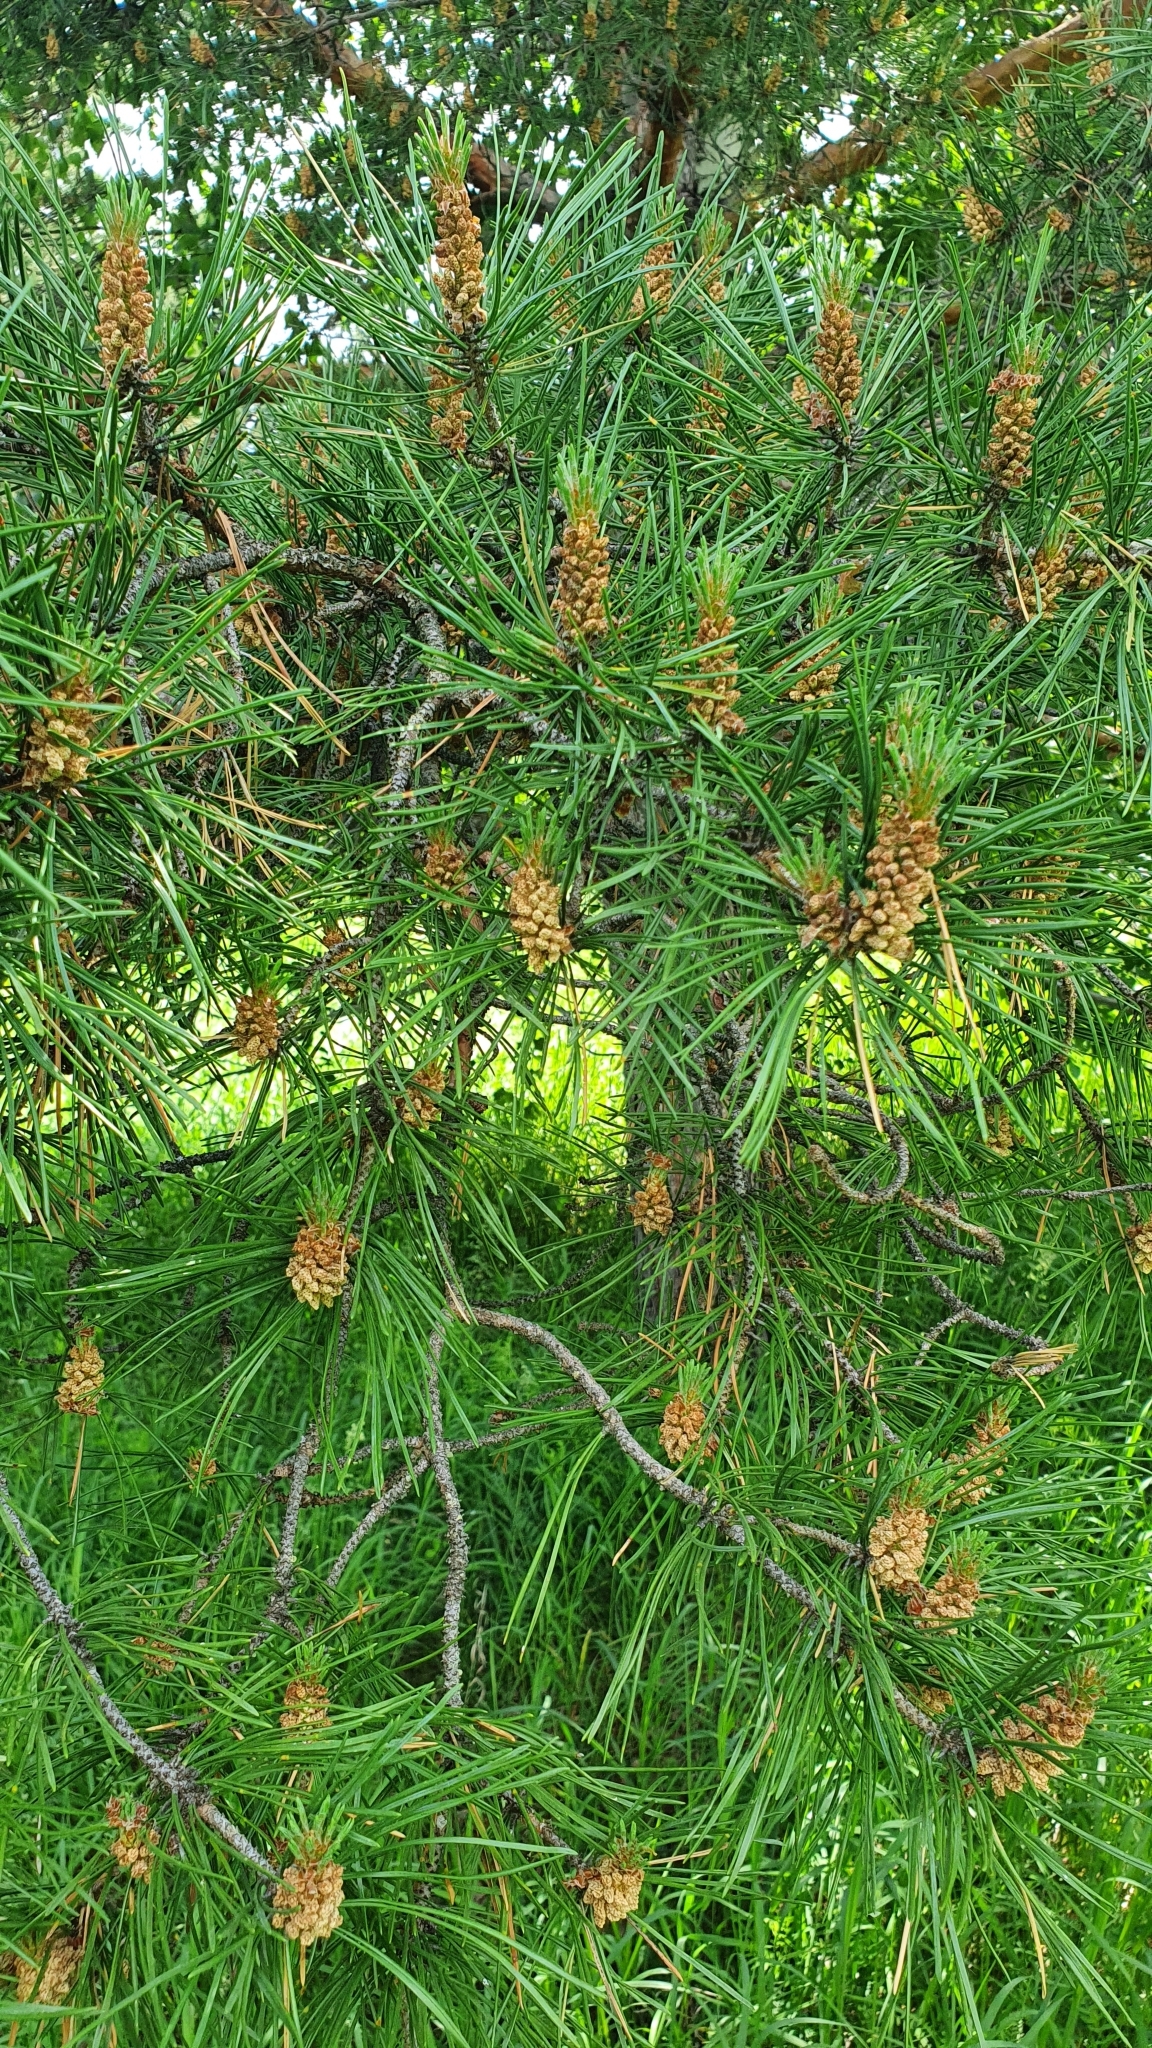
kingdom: Plantae
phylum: Tracheophyta
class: Pinopsida
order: Pinales
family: Pinaceae
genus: Pinus
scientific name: Pinus sylvestris
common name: Scots pine
